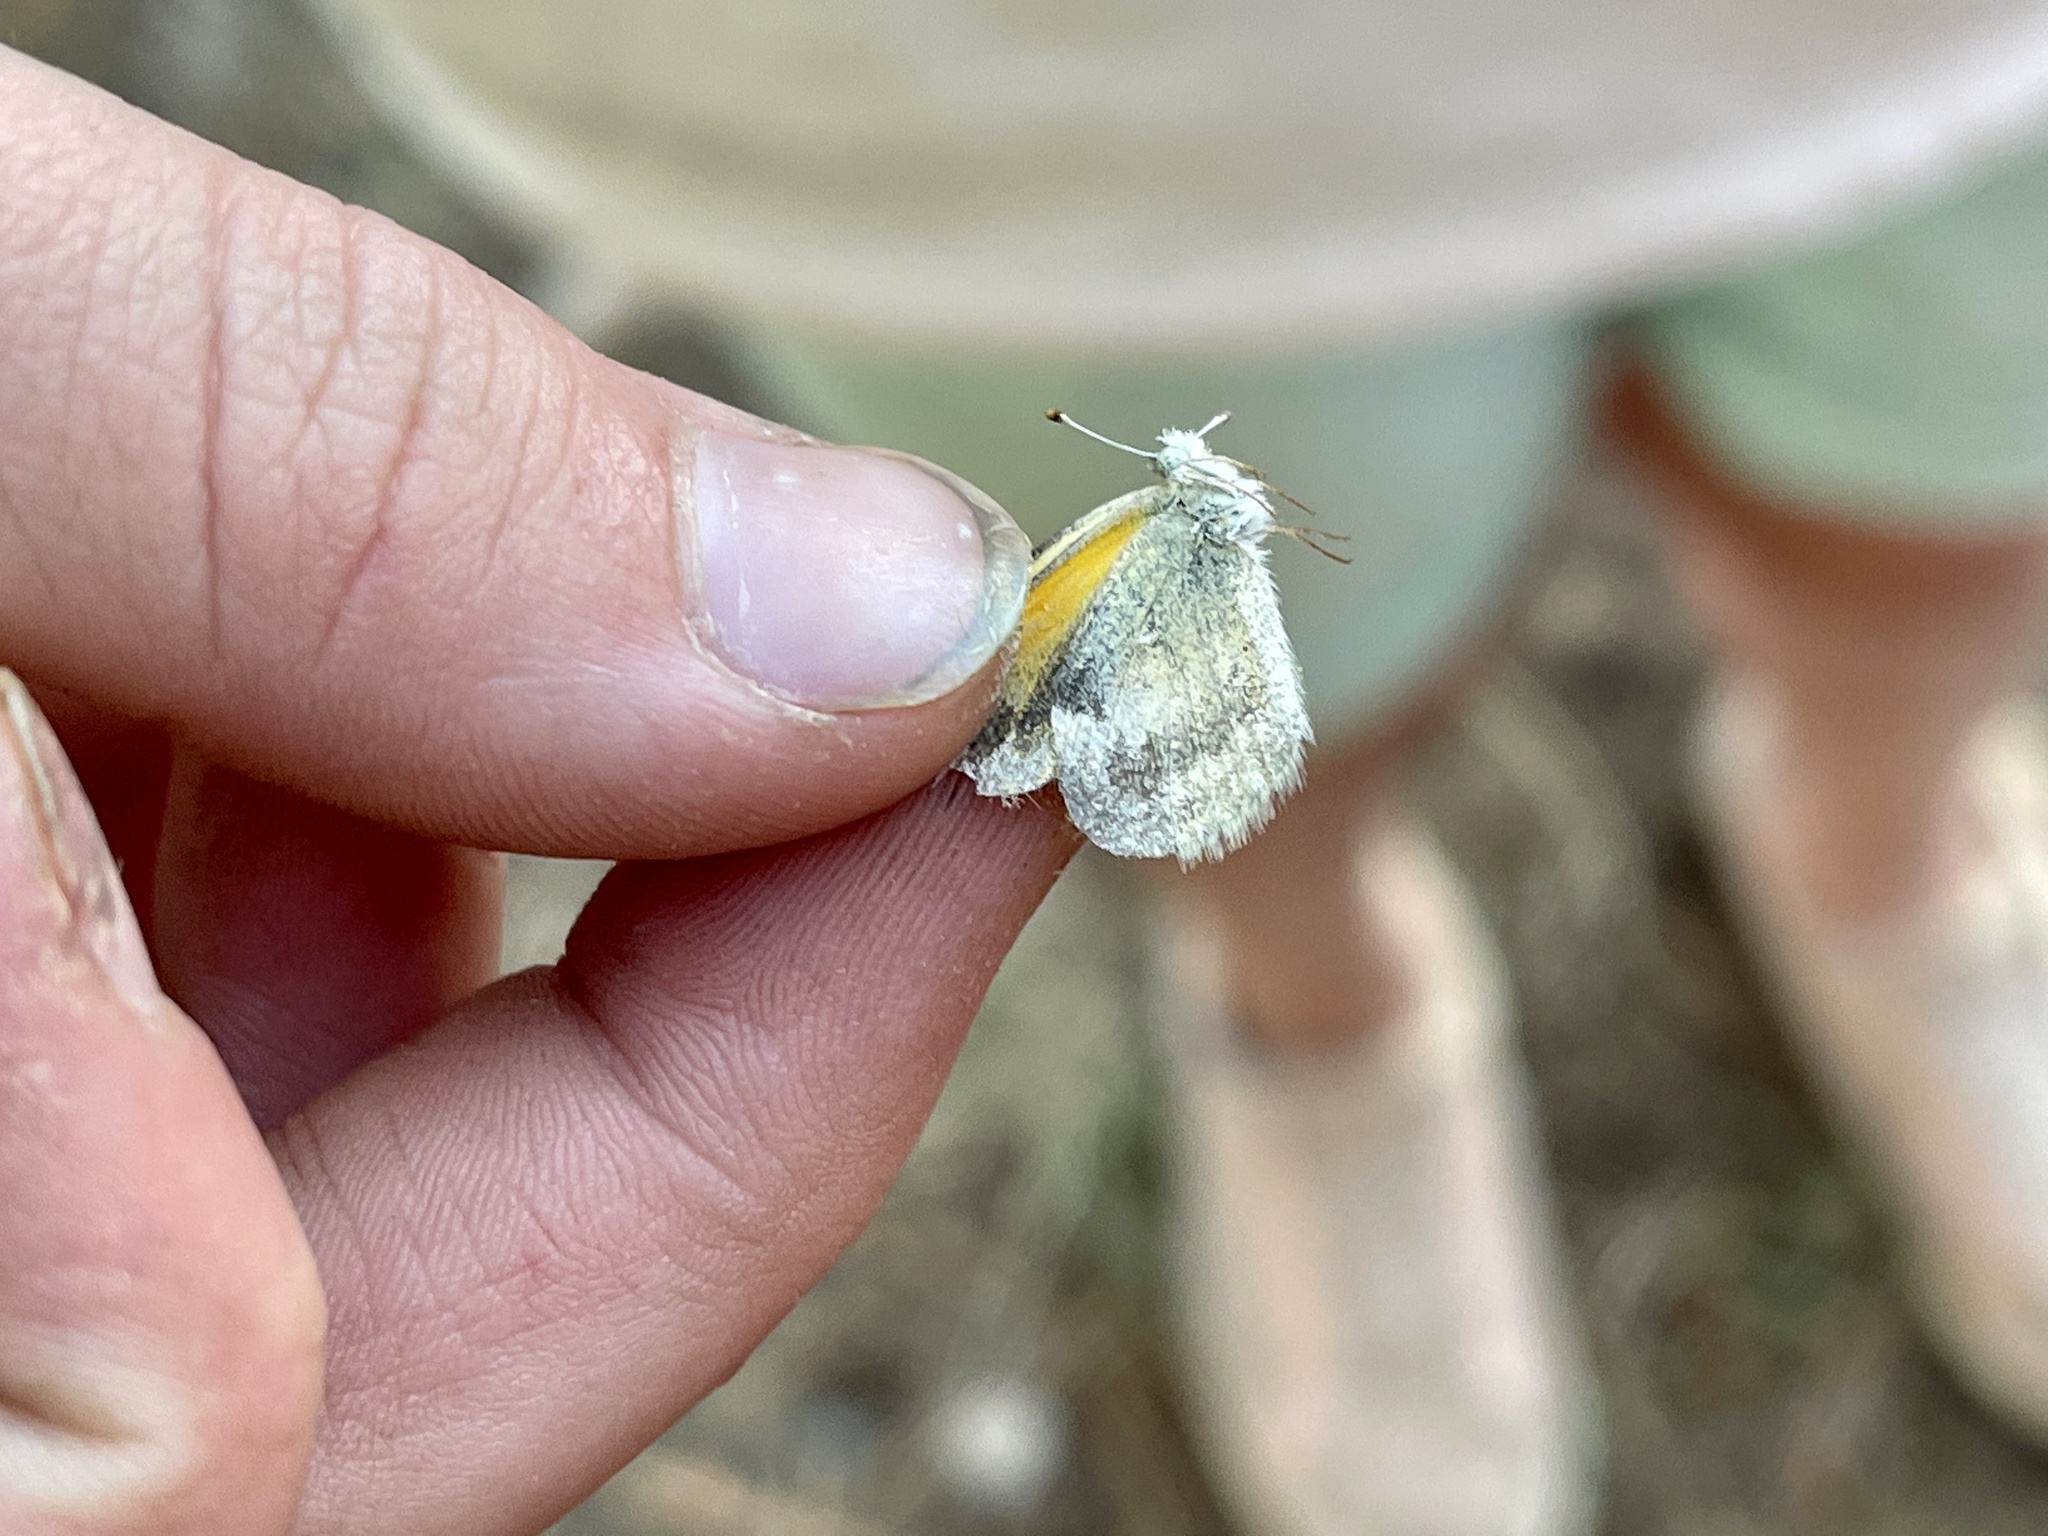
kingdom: Animalia
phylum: Arthropoda
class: Insecta
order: Lepidoptera
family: Pieridae
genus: Nathalis
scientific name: Nathalis iole
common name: Dainty sulphur
